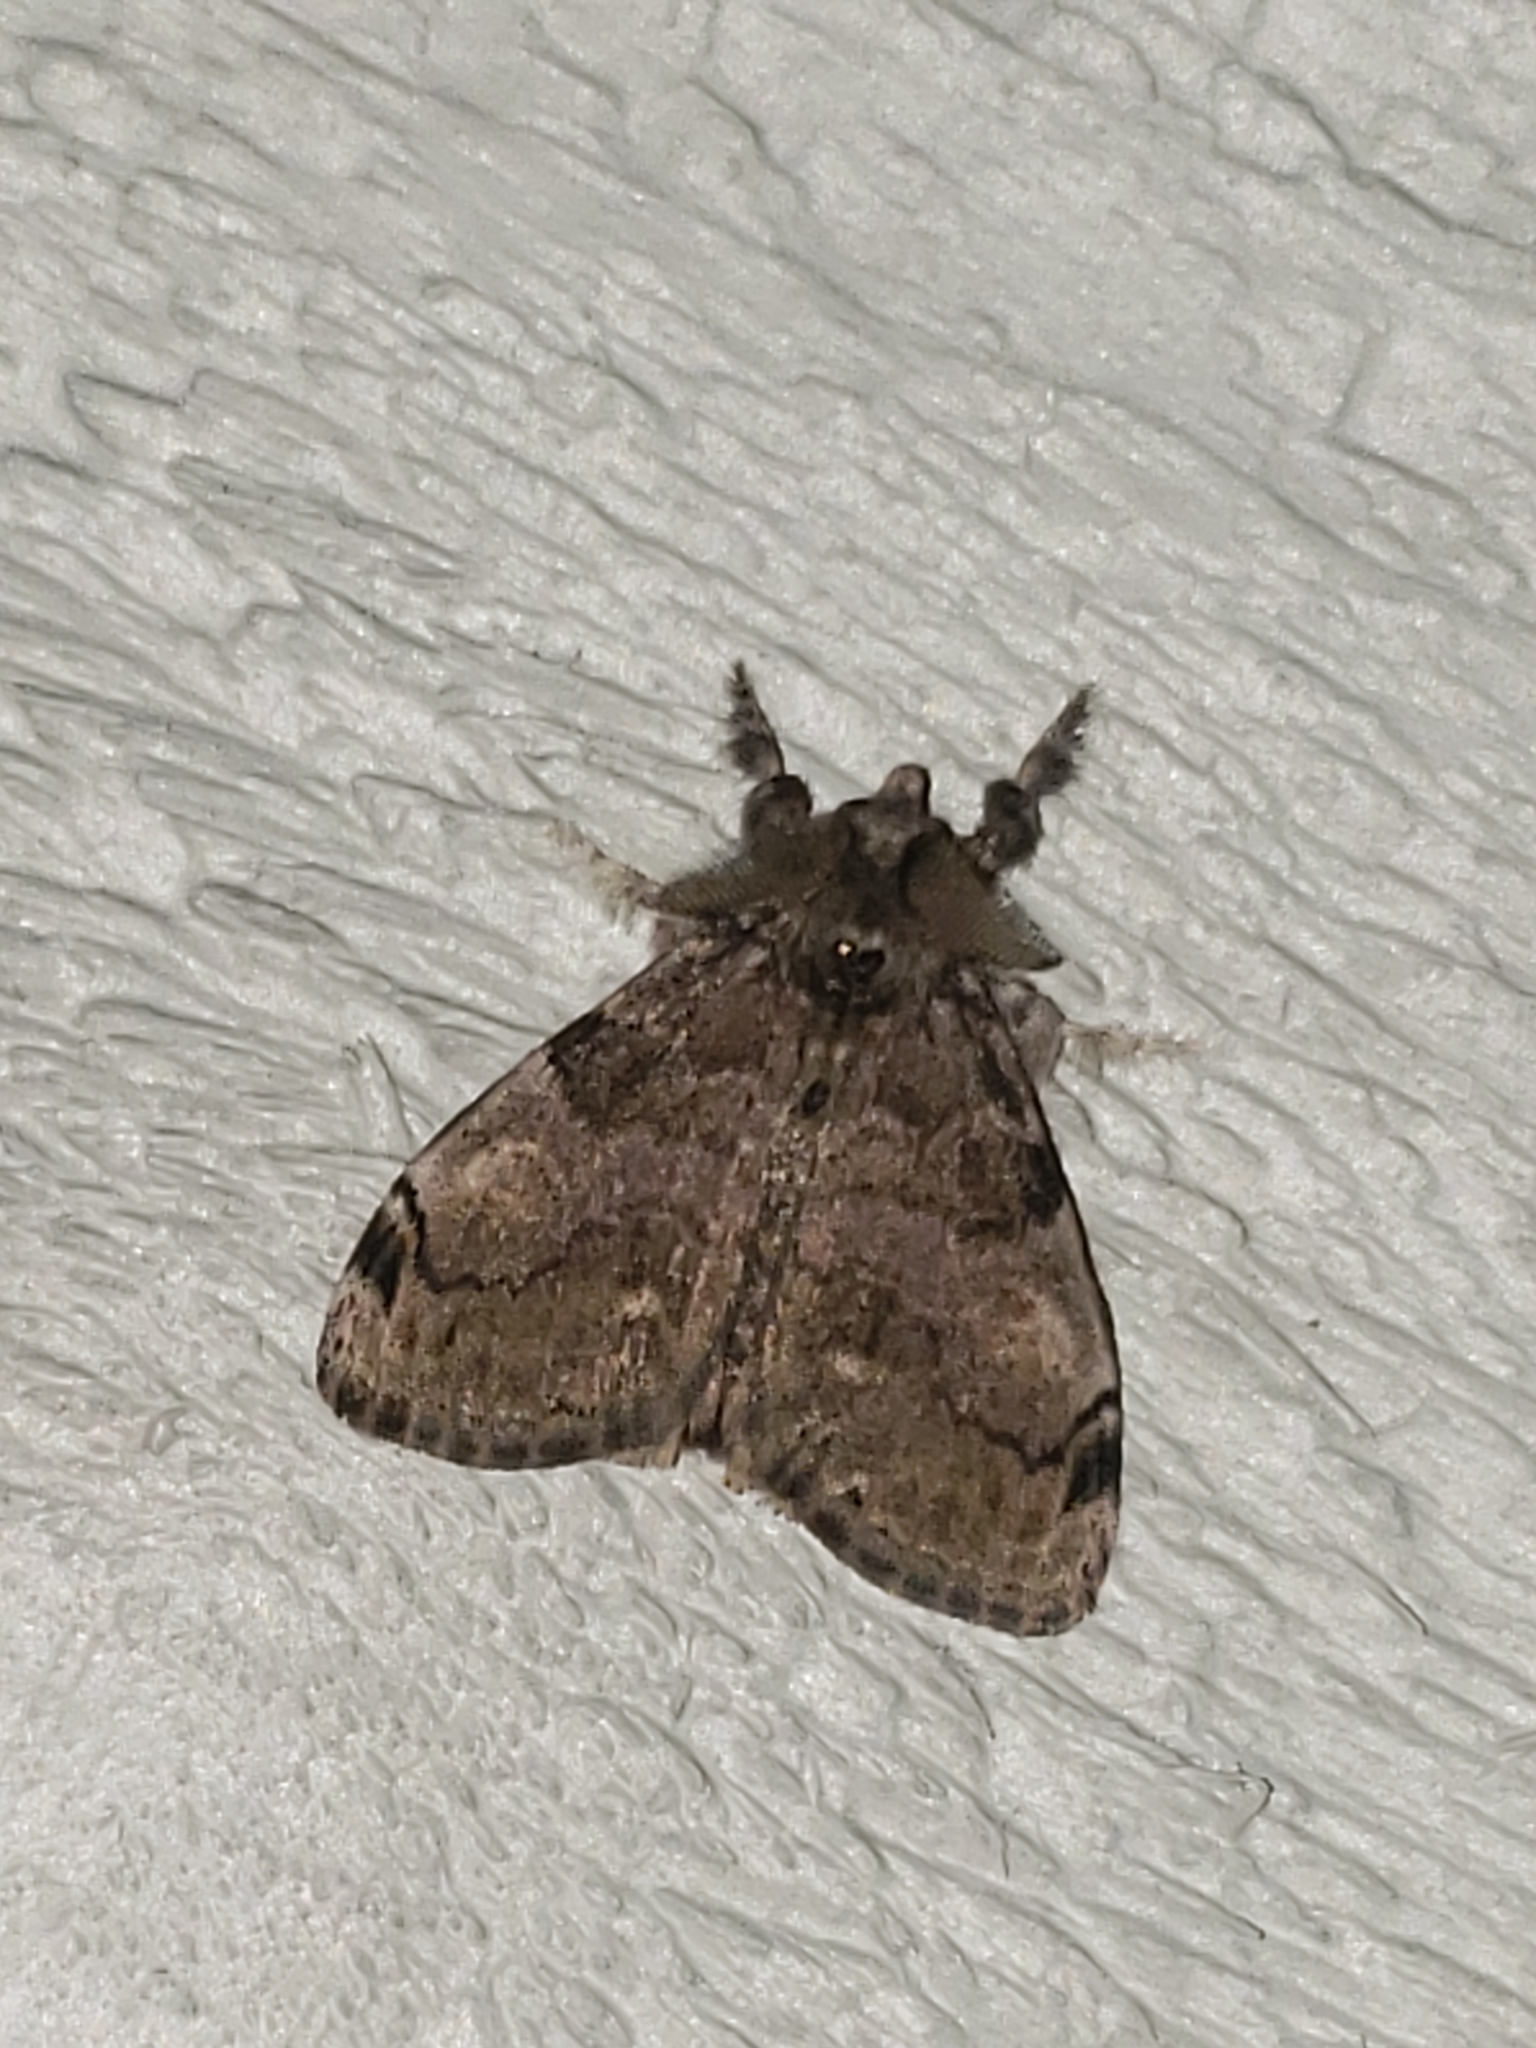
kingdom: Animalia
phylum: Arthropoda
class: Insecta
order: Lepidoptera
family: Erebidae
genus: Orgyia
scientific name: Orgyia leucostigma
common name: White-marked tussock moth
